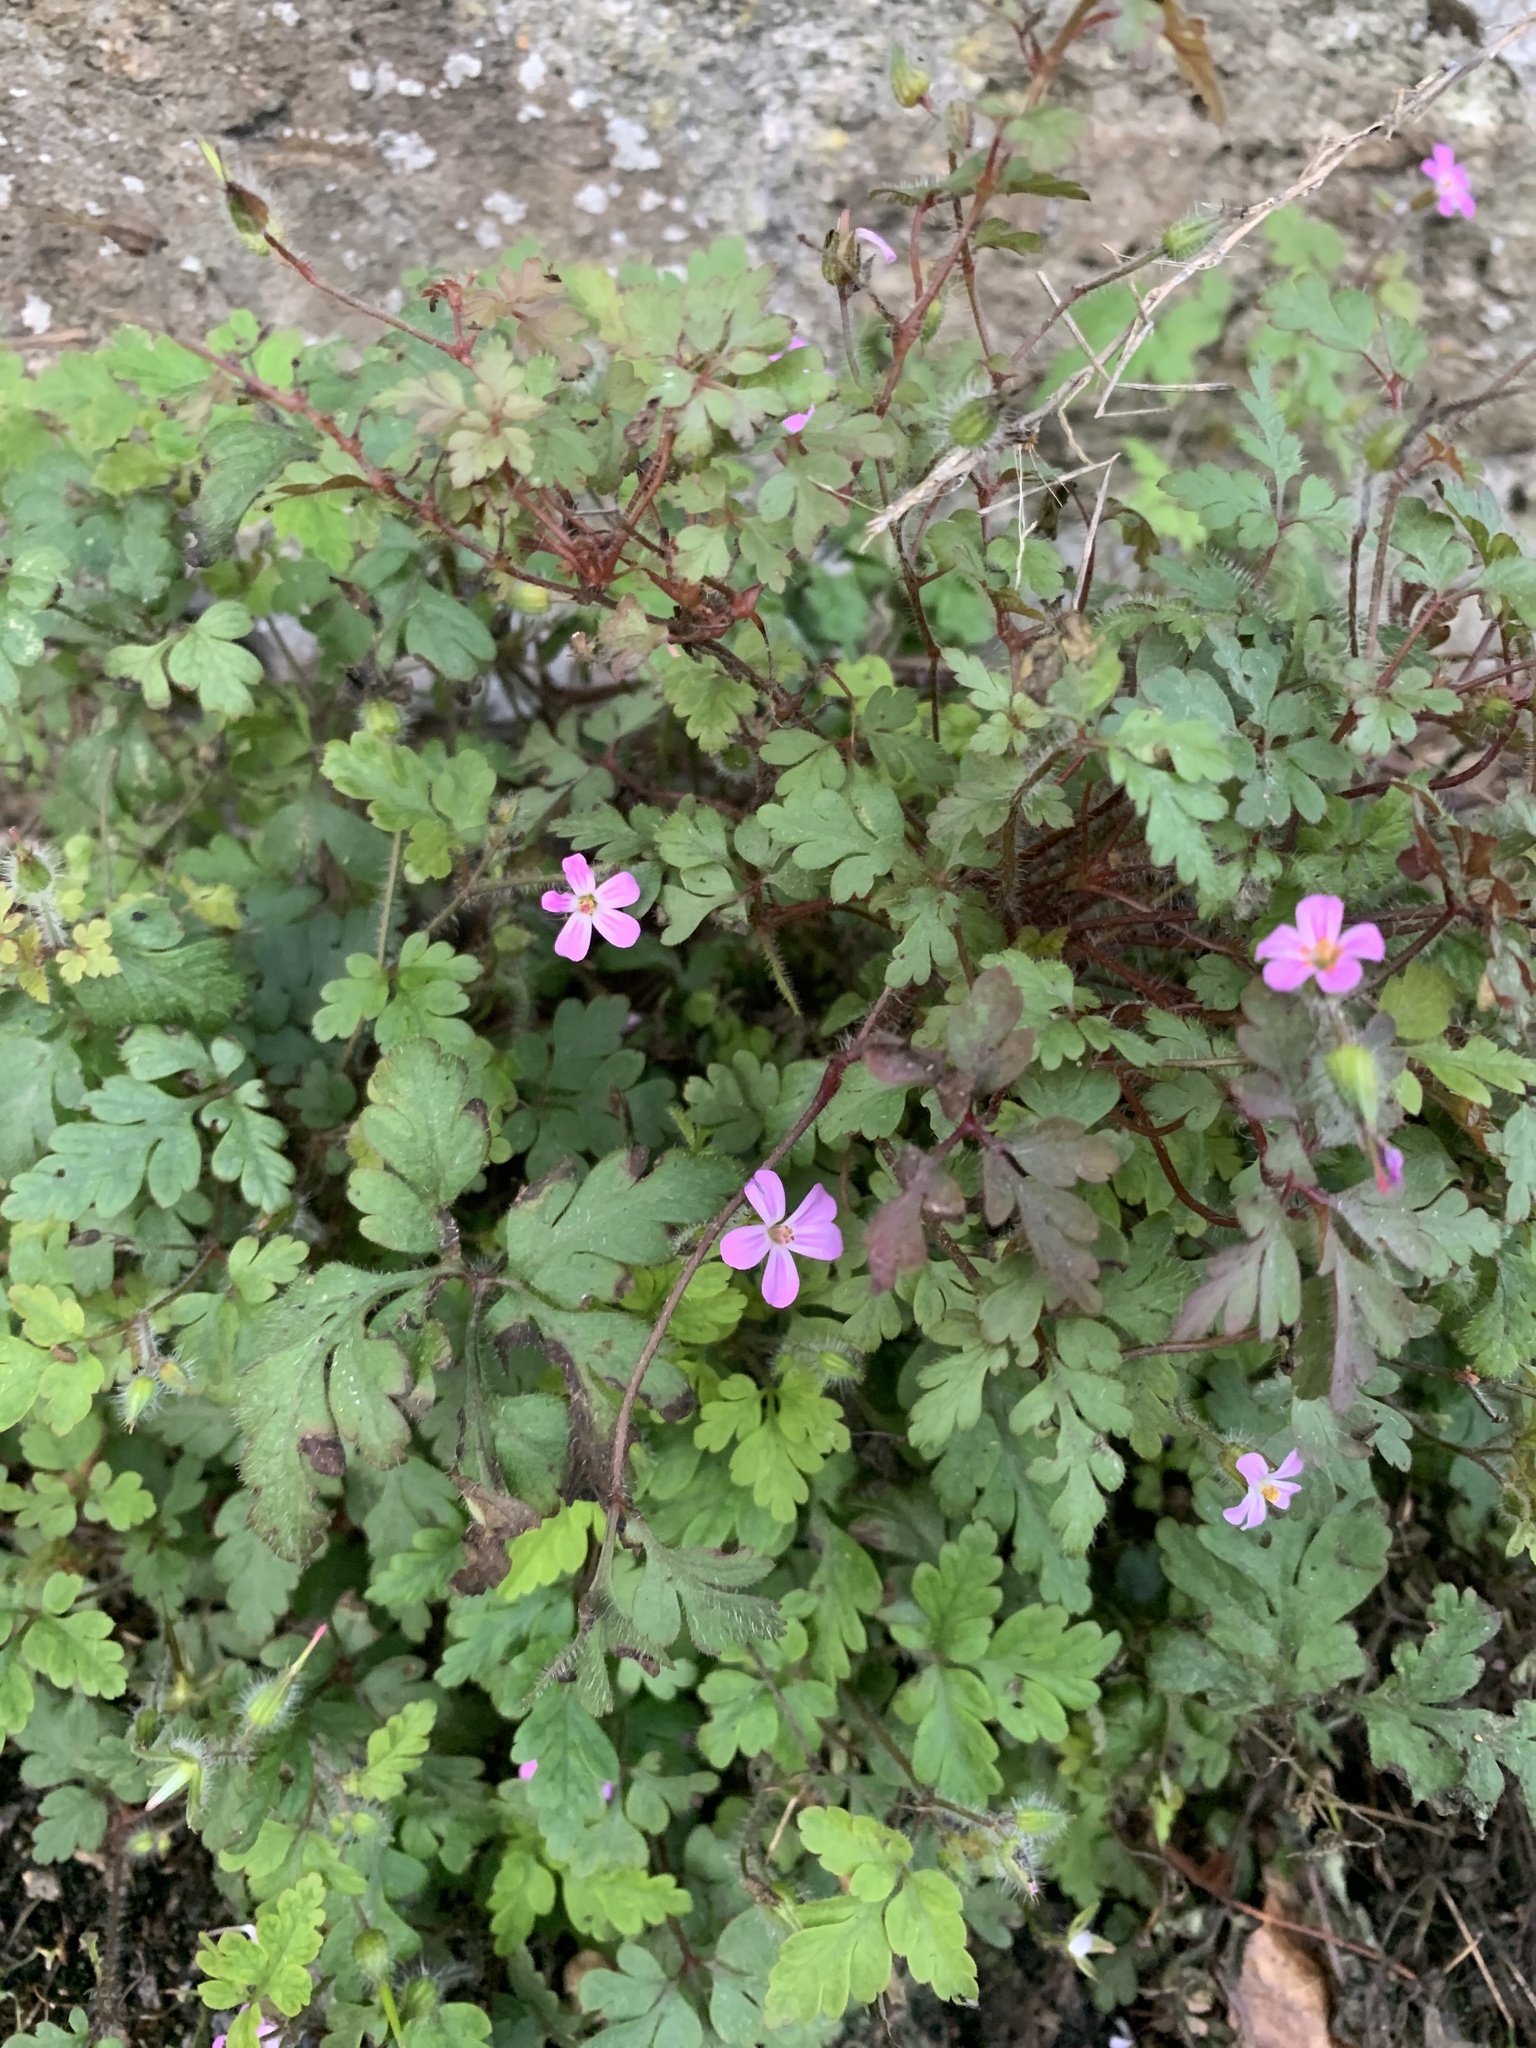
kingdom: Plantae
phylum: Tracheophyta
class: Magnoliopsida
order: Geraniales
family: Geraniaceae
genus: Geranium
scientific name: Geranium robertianum
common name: Herb-robert
